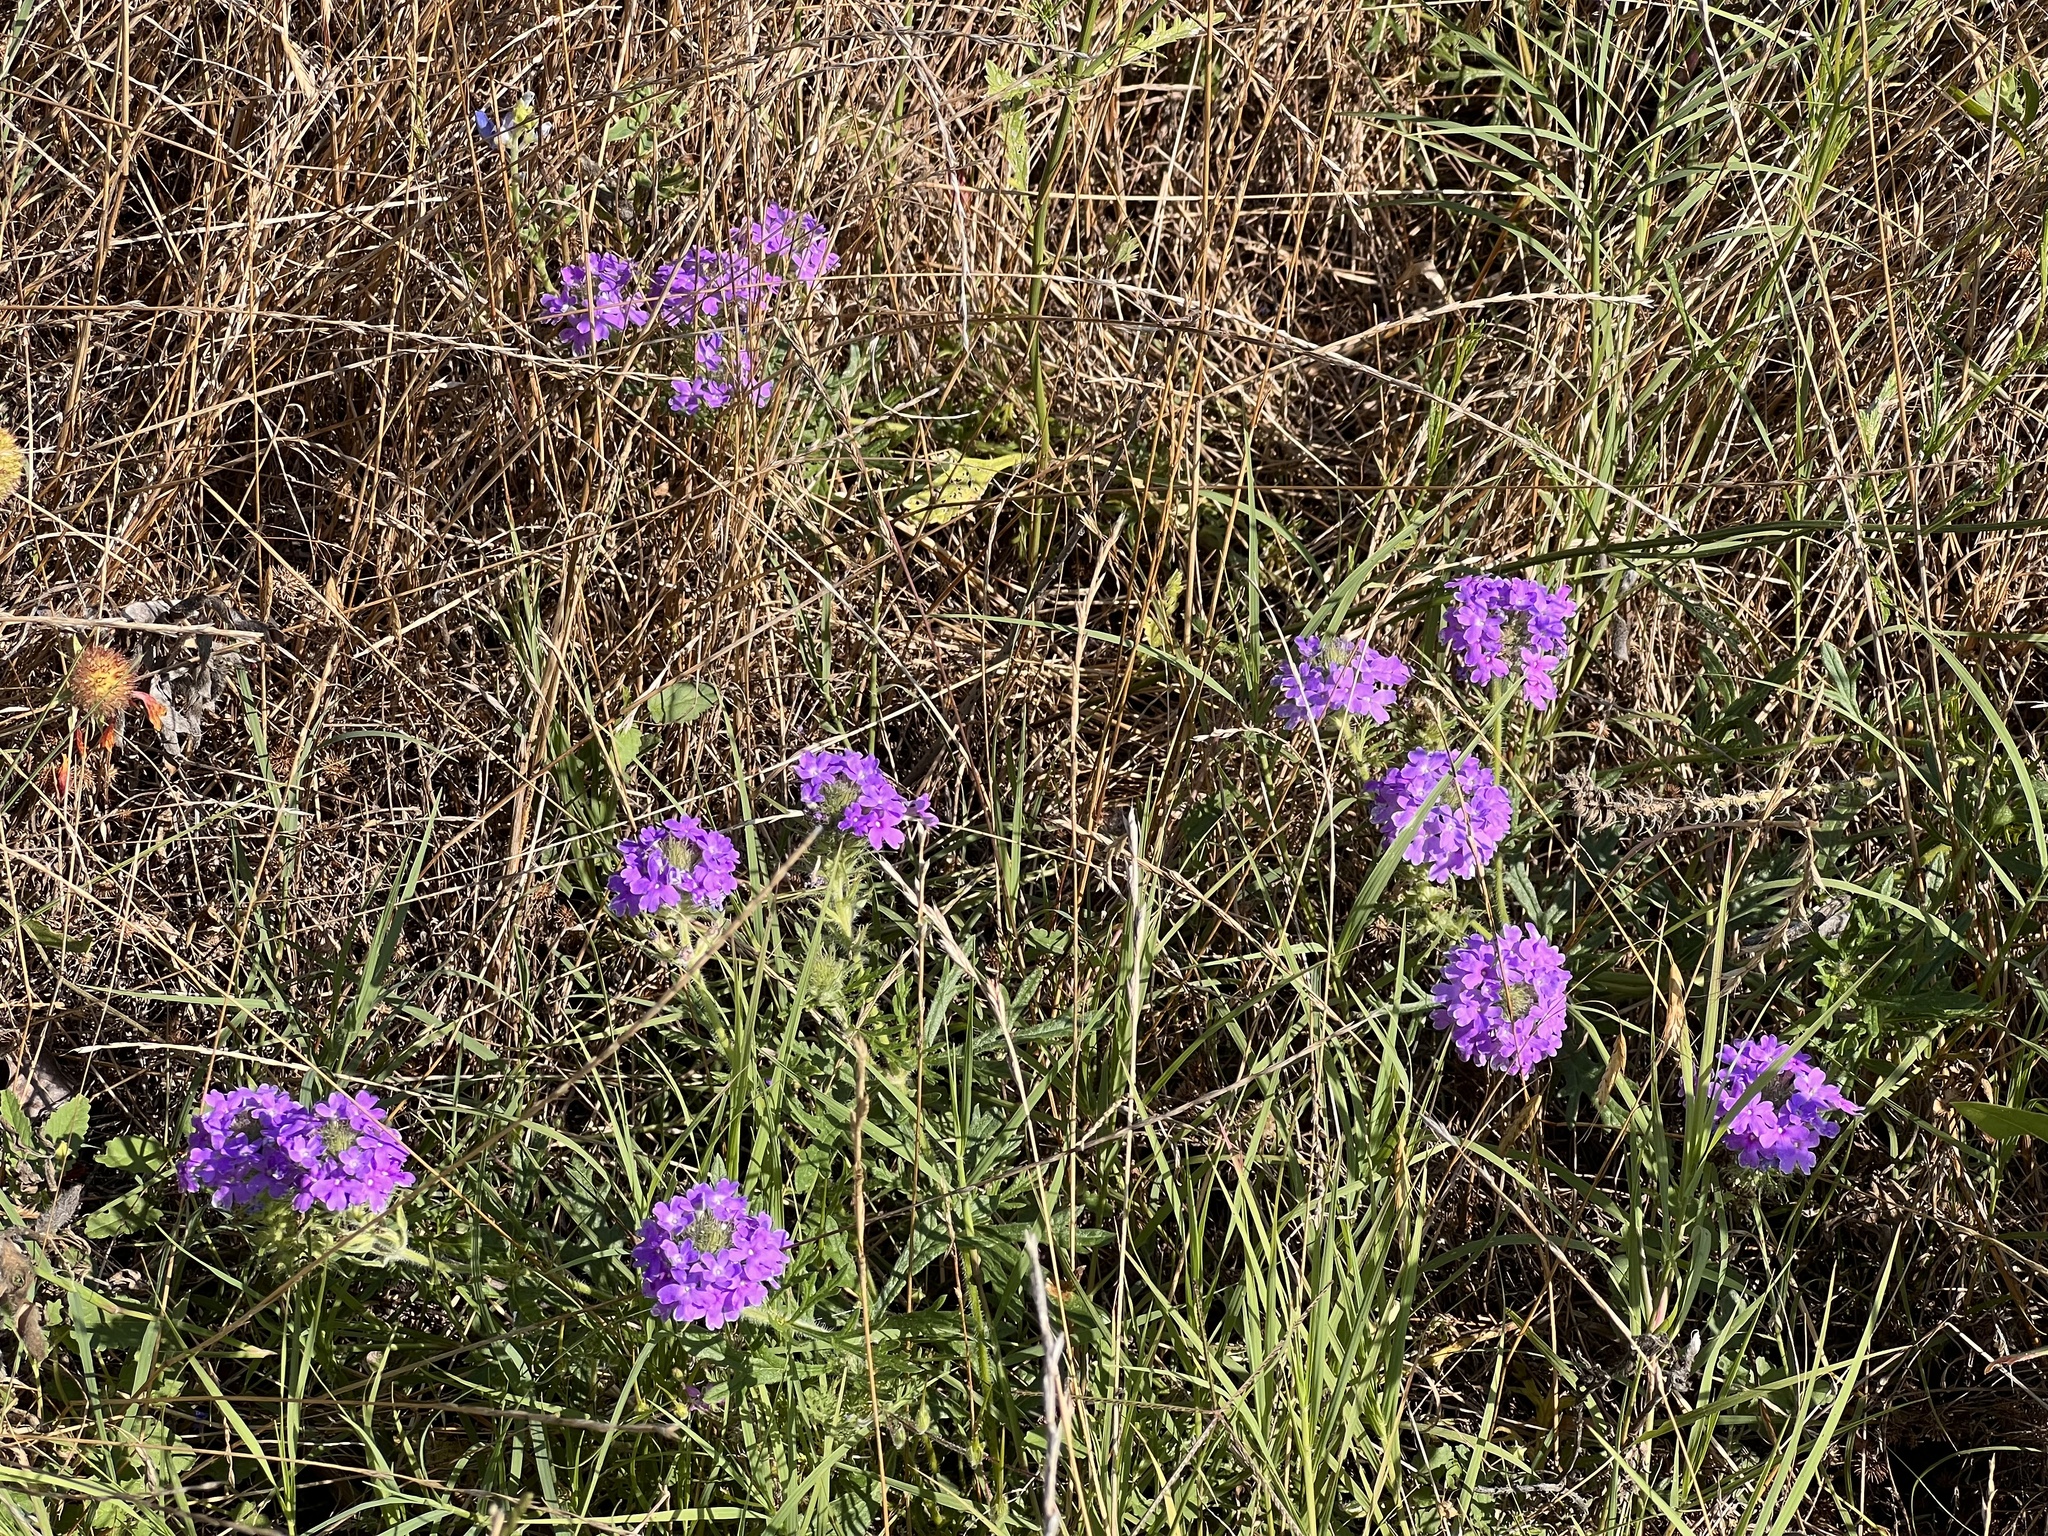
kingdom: Plantae
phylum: Tracheophyta
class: Magnoliopsida
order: Lamiales
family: Verbenaceae
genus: Verbena
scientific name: Verbena bipinnatifida
